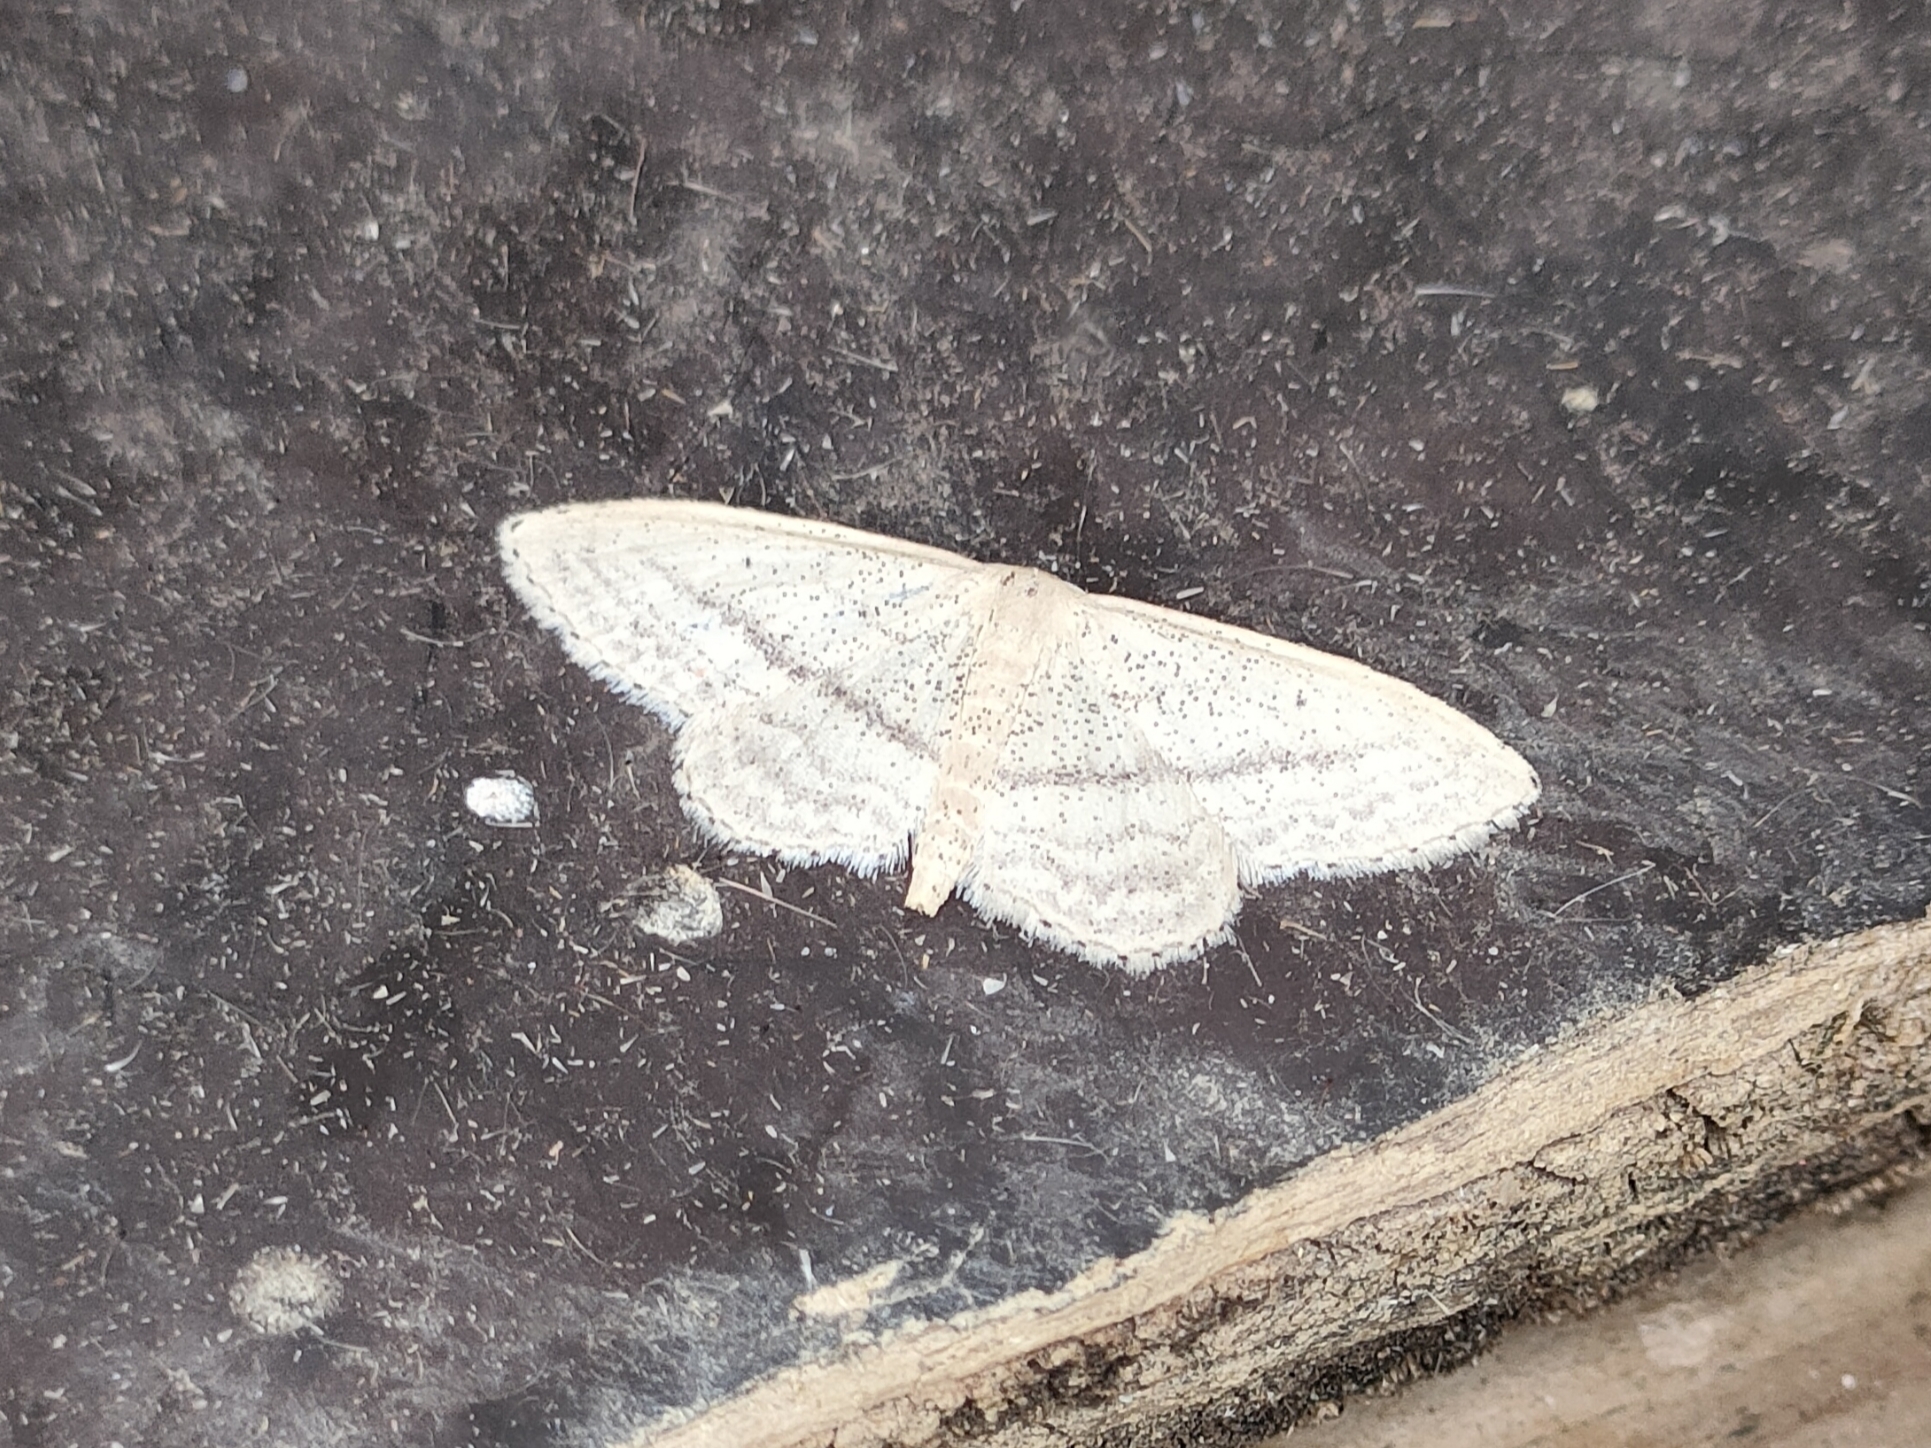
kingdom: Animalia
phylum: Arthropoda
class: Insecta
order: Lepidoptera
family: Geometridae
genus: Idaea
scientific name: Idaea mediaria
